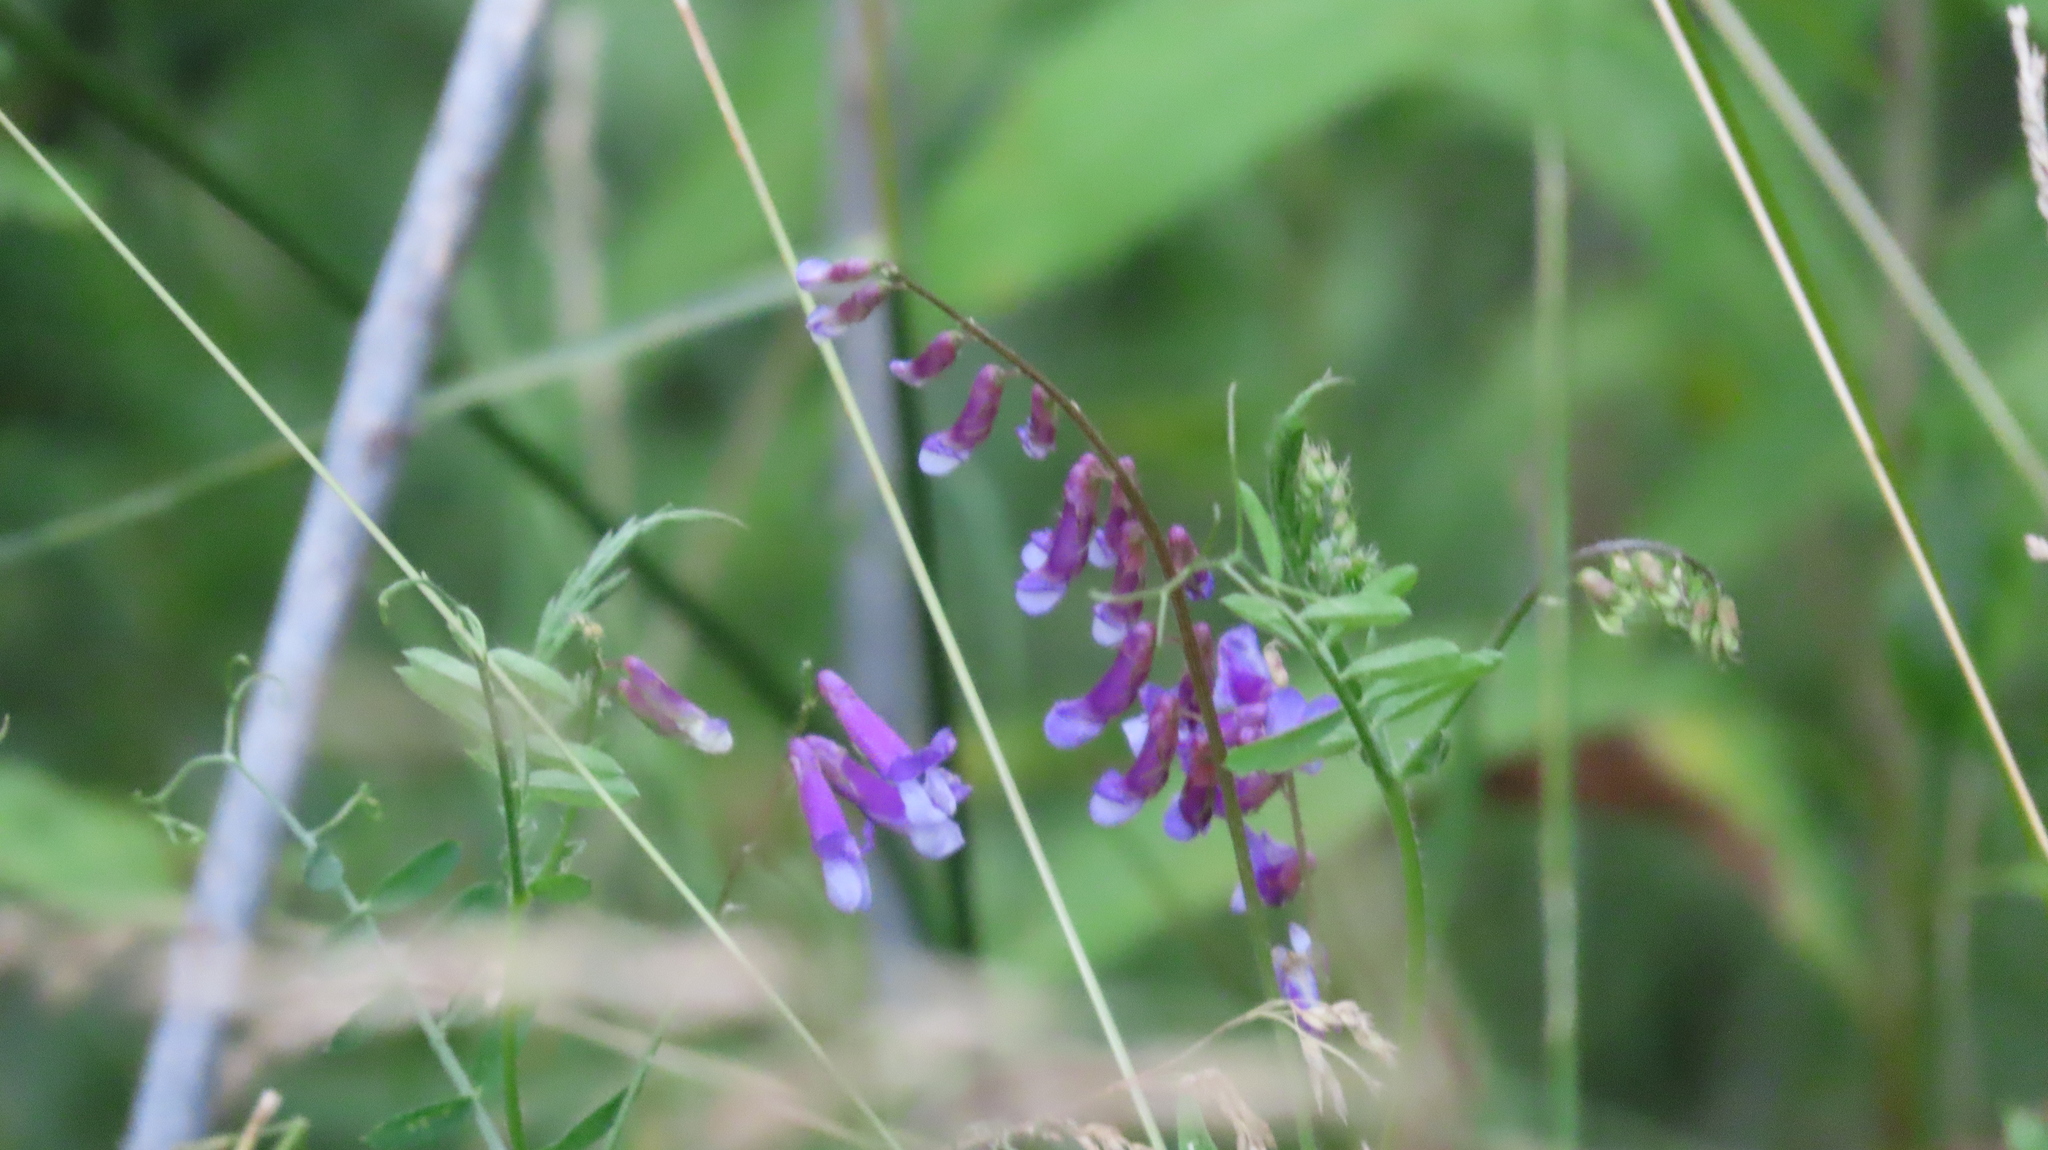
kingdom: Plantae
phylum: Tracheophyta
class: Magnoliopsida
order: Fabales
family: Fabaceae
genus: Vicia
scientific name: Vicia villosa
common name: Fodder vetch
